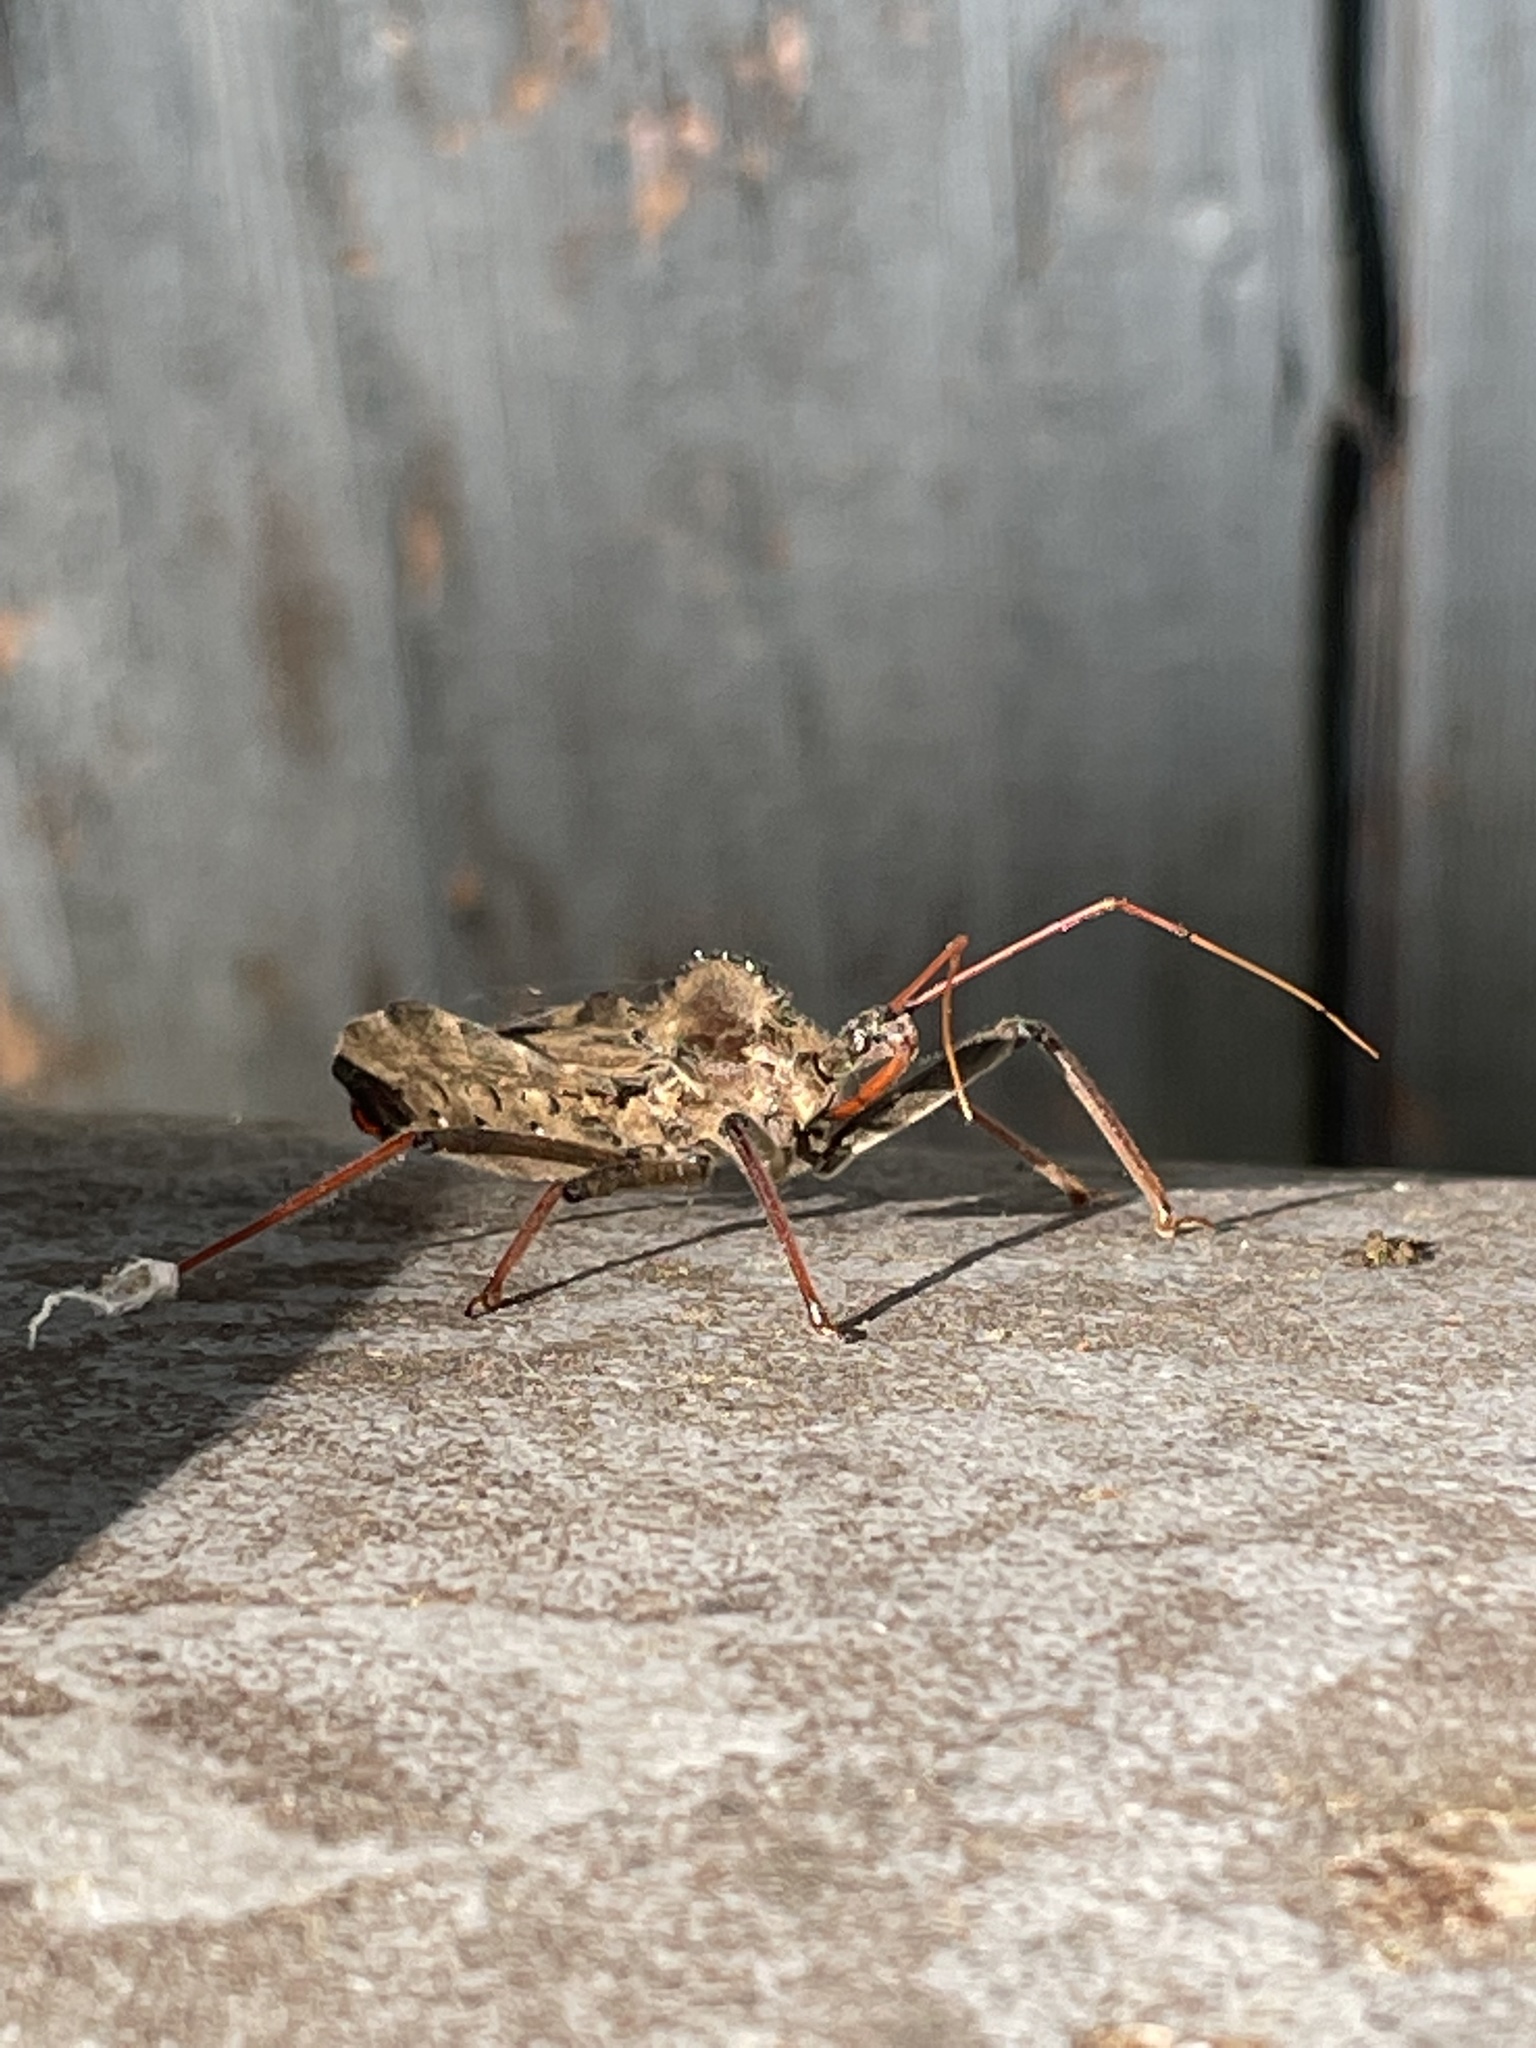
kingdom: Animalia
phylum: Arthropoda
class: Insecta
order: Hemiptera
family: Reduviidae
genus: Arilus
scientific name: Arilus cristatus
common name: North american wheel bug
